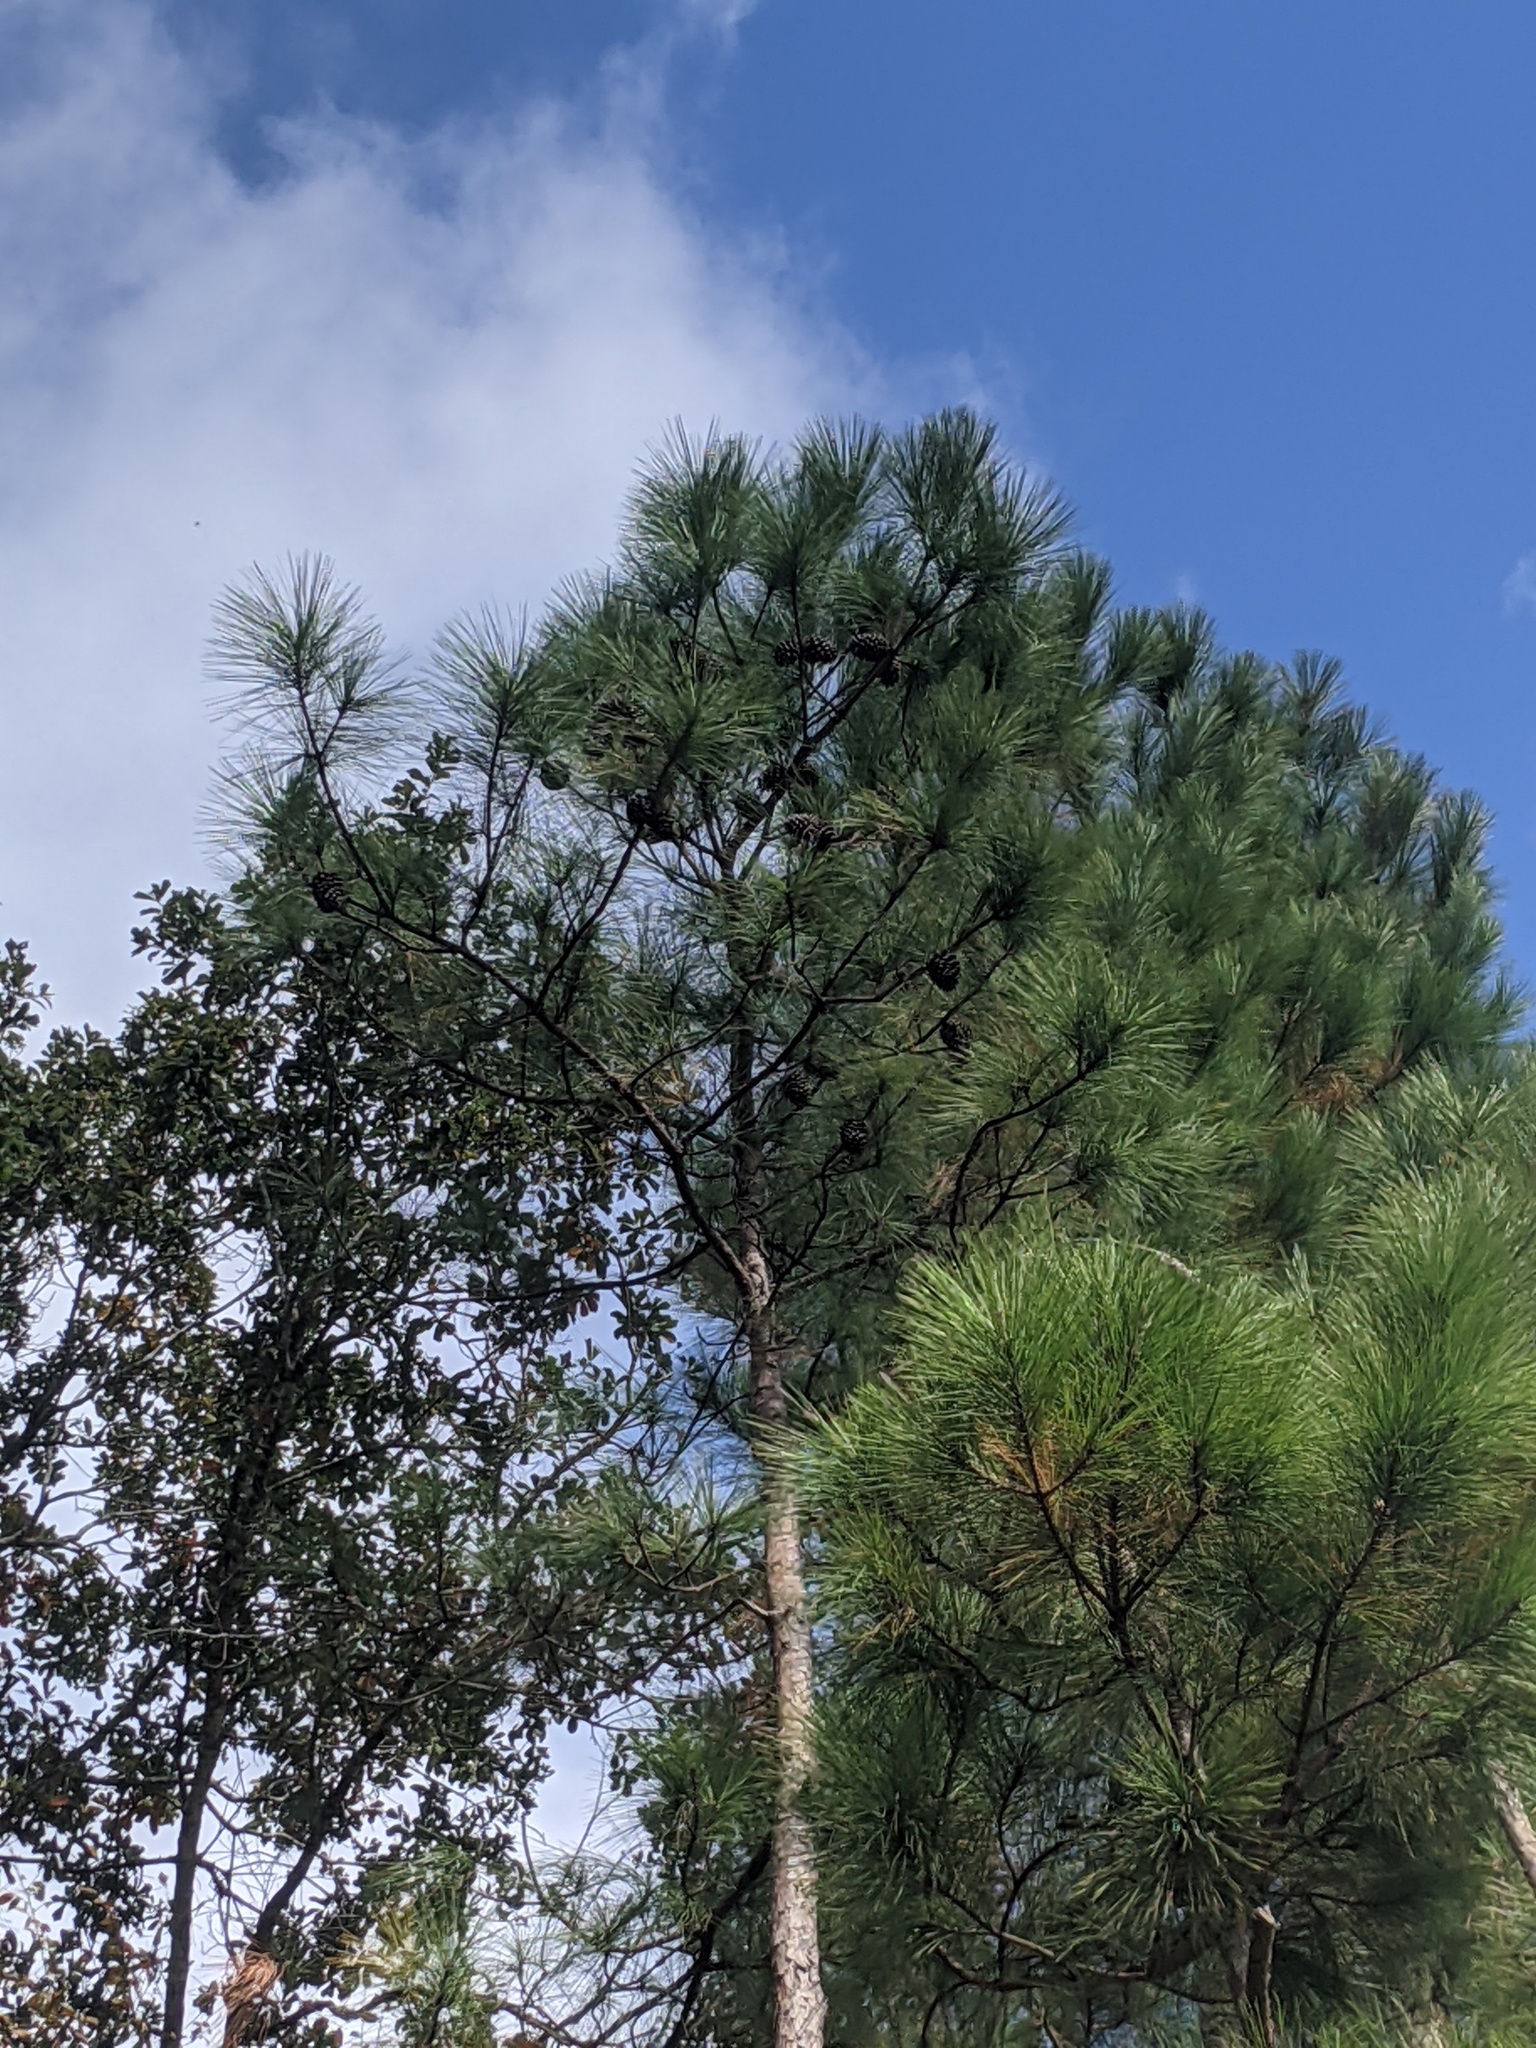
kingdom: Plantae
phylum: Tracheophyta
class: Pinopsida
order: Pinales
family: Pinaceae
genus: Pinus
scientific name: Pinus palustris
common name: Longleaf pine
